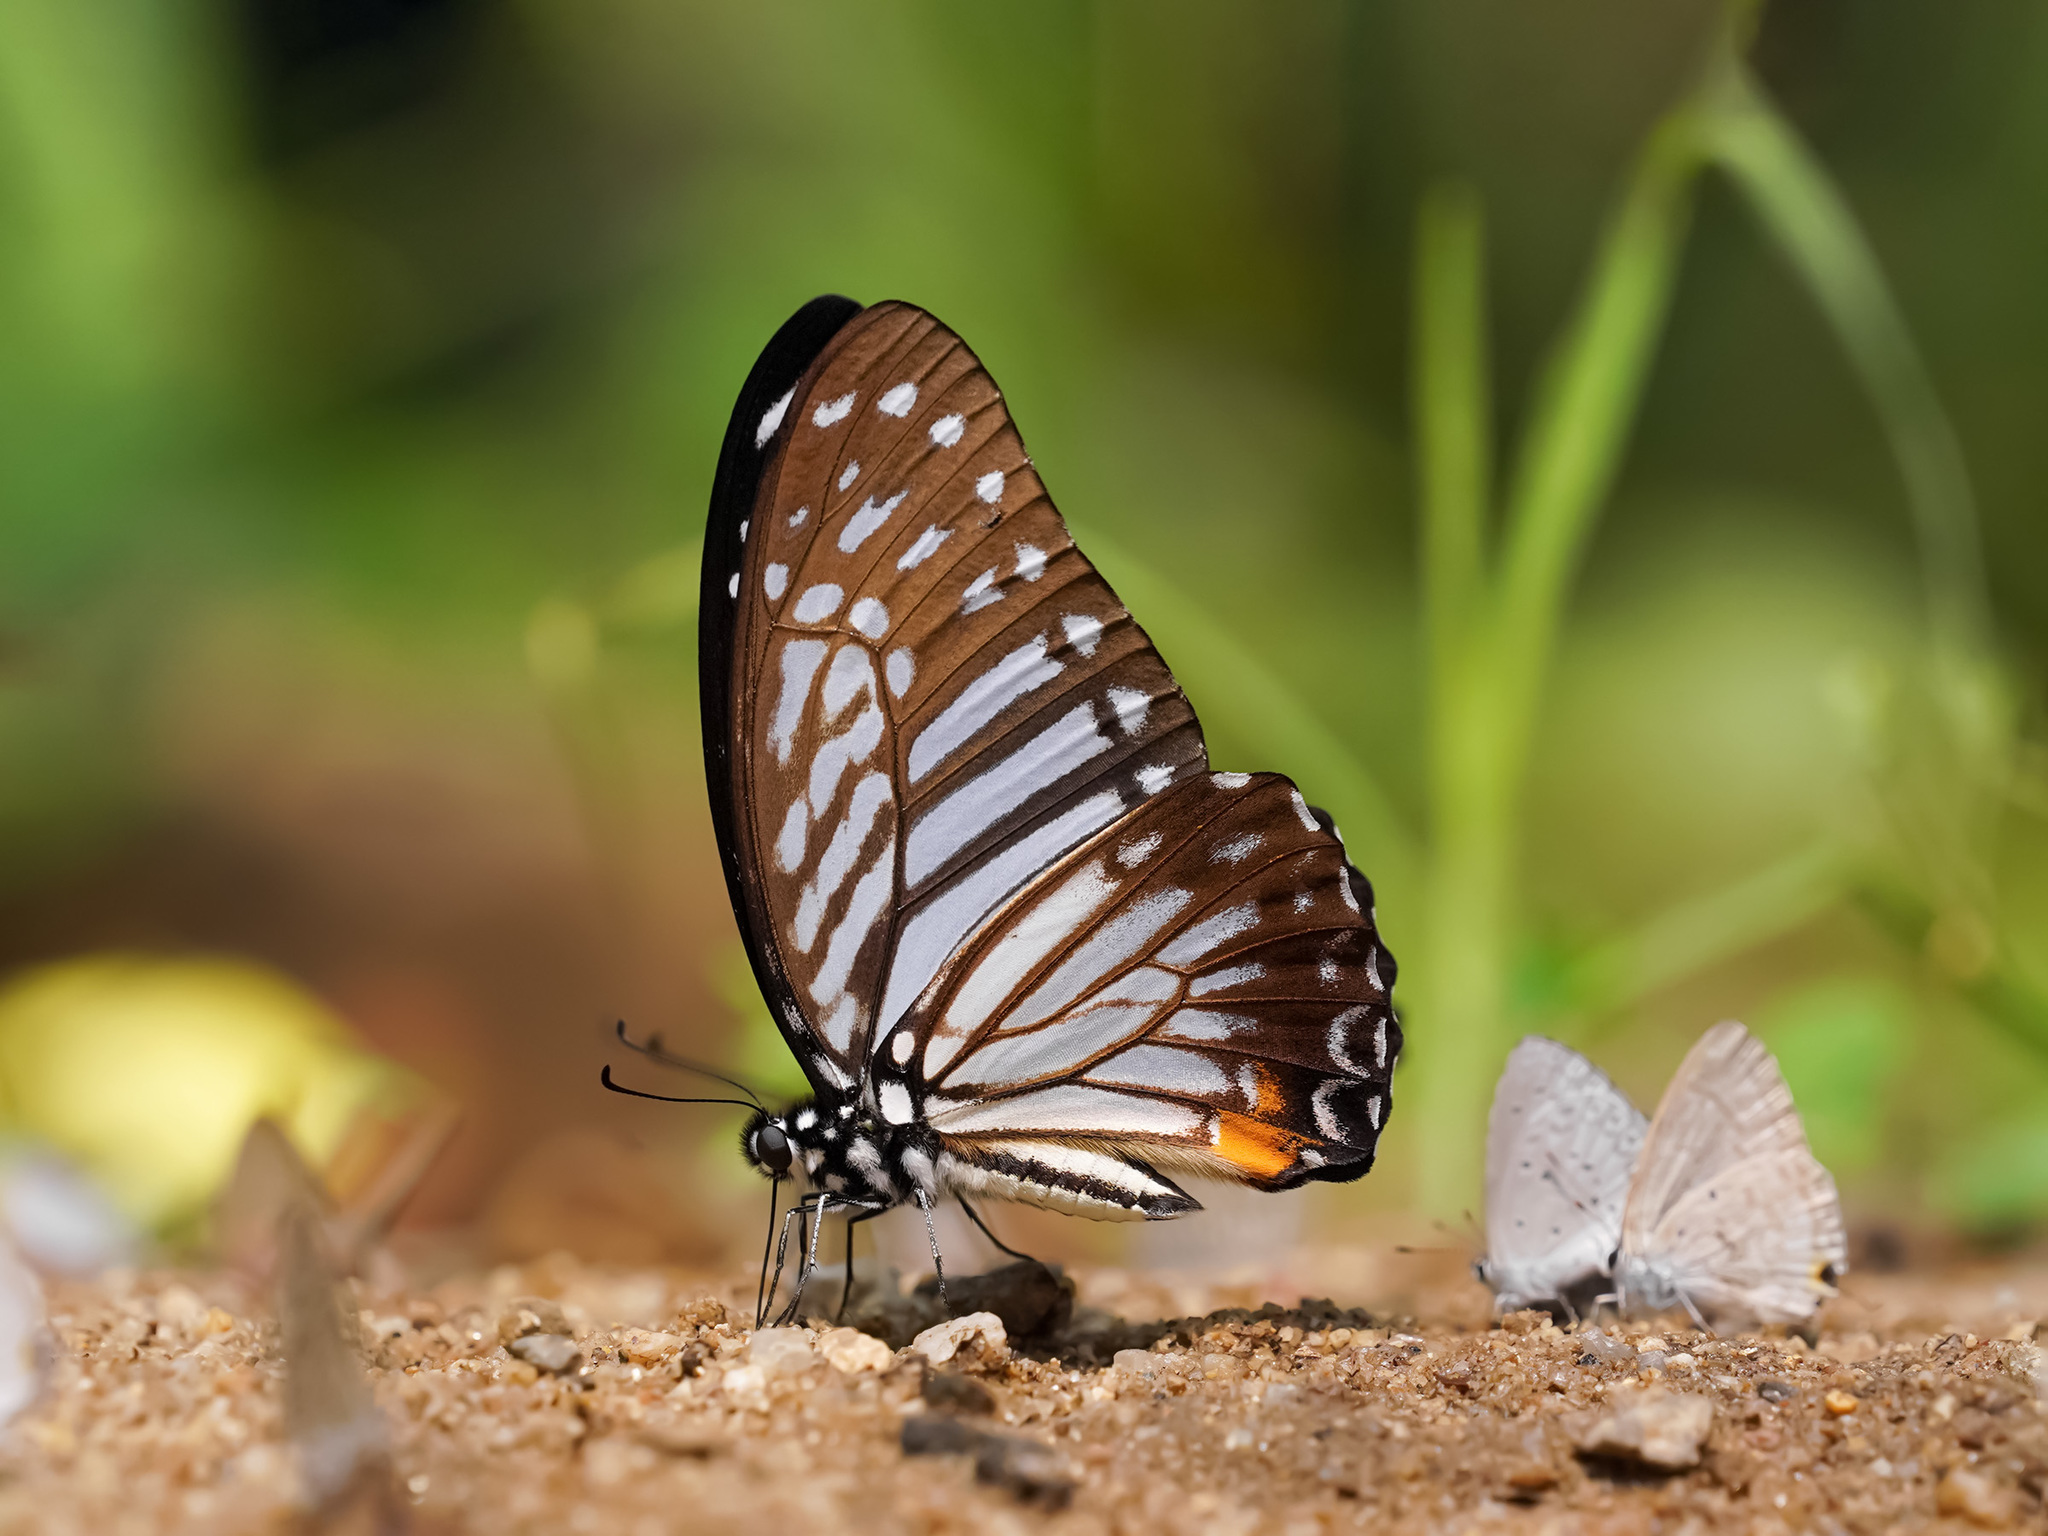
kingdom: Animalia
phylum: Arthropoda
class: Insecta
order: Lepidoptera
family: Papilionidae
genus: Graphium
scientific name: Graphium xenocles
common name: Great zebra
